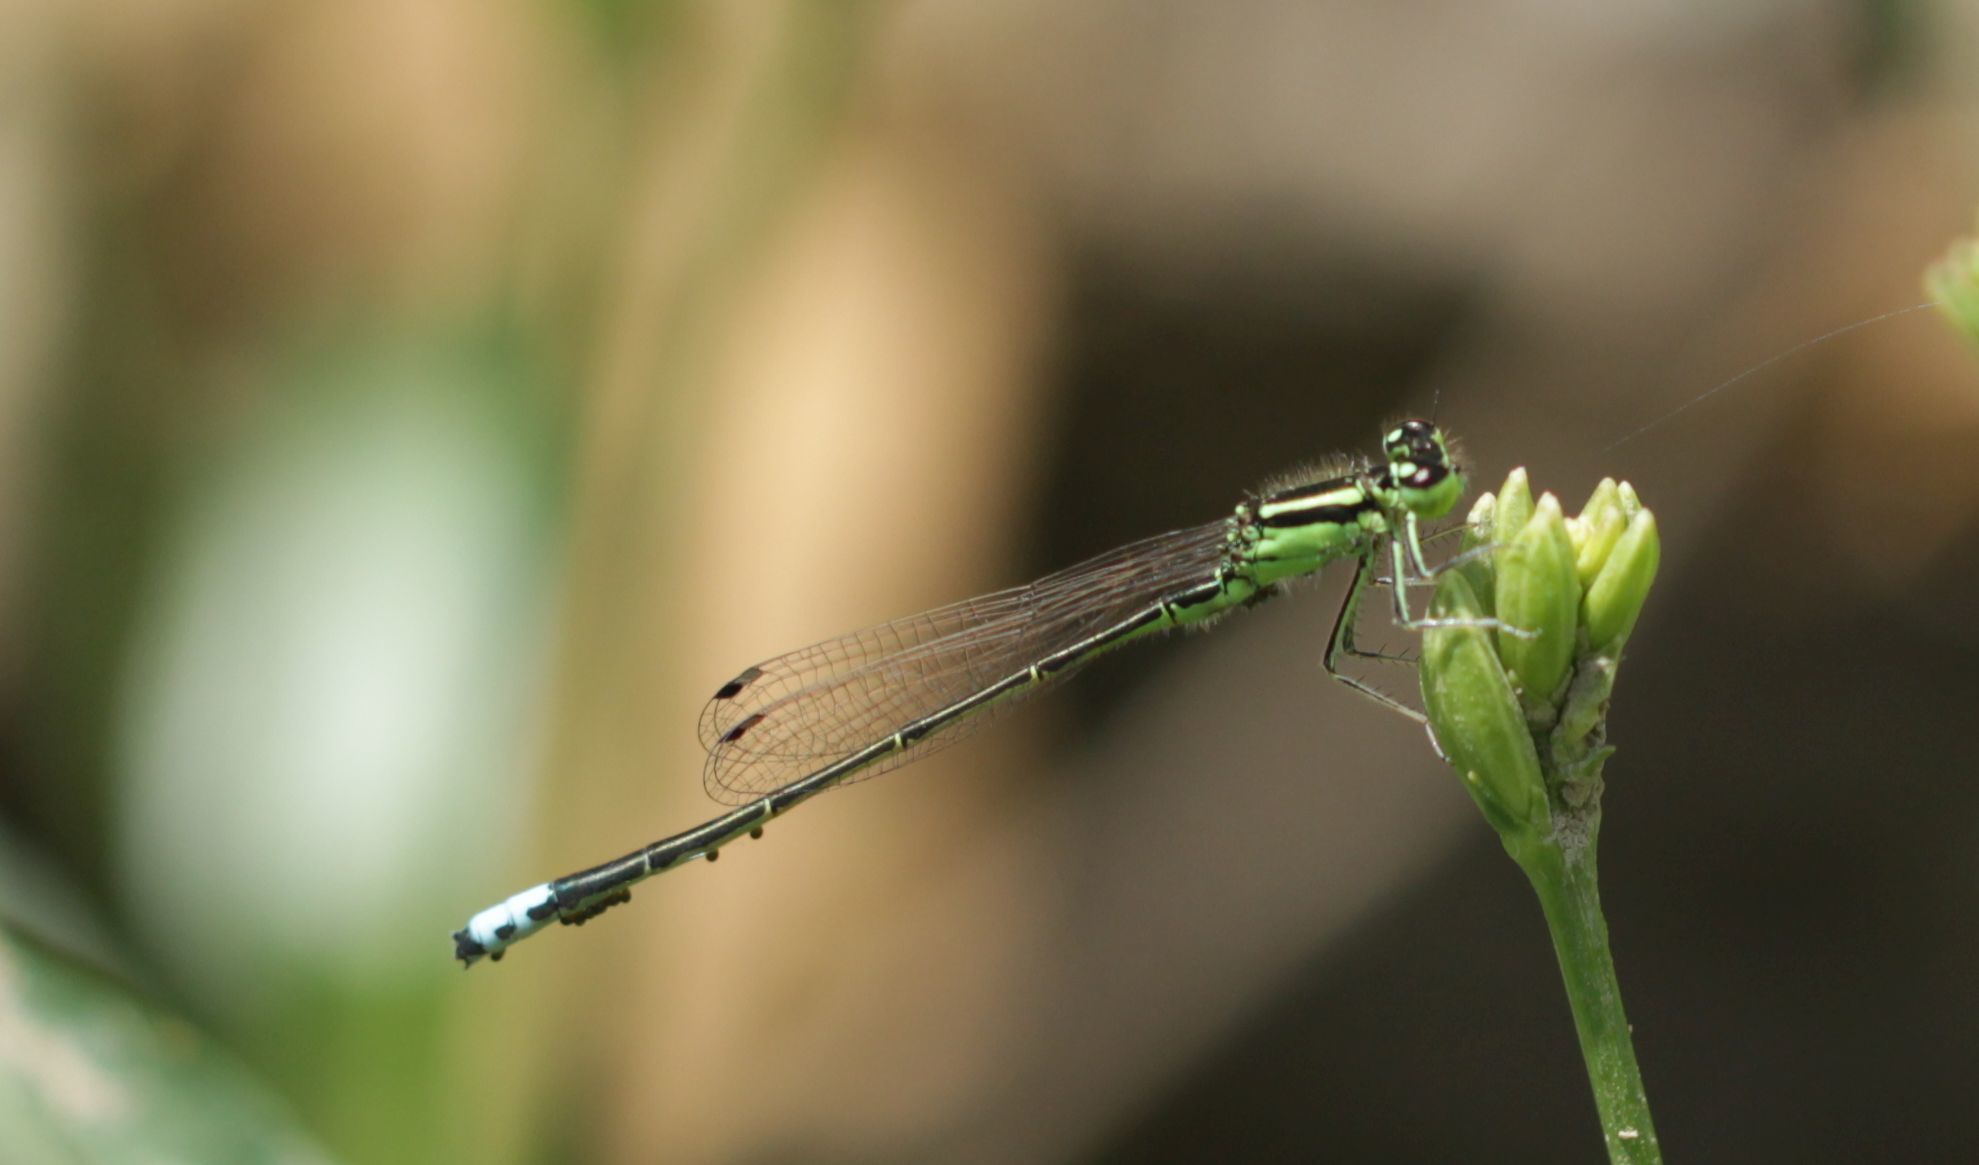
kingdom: Animalia
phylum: Arthropoda
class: Insecta
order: Odonata
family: Coenagrionidae
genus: Ischnura
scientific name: Ischnura verticalis
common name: Eastern forktail
